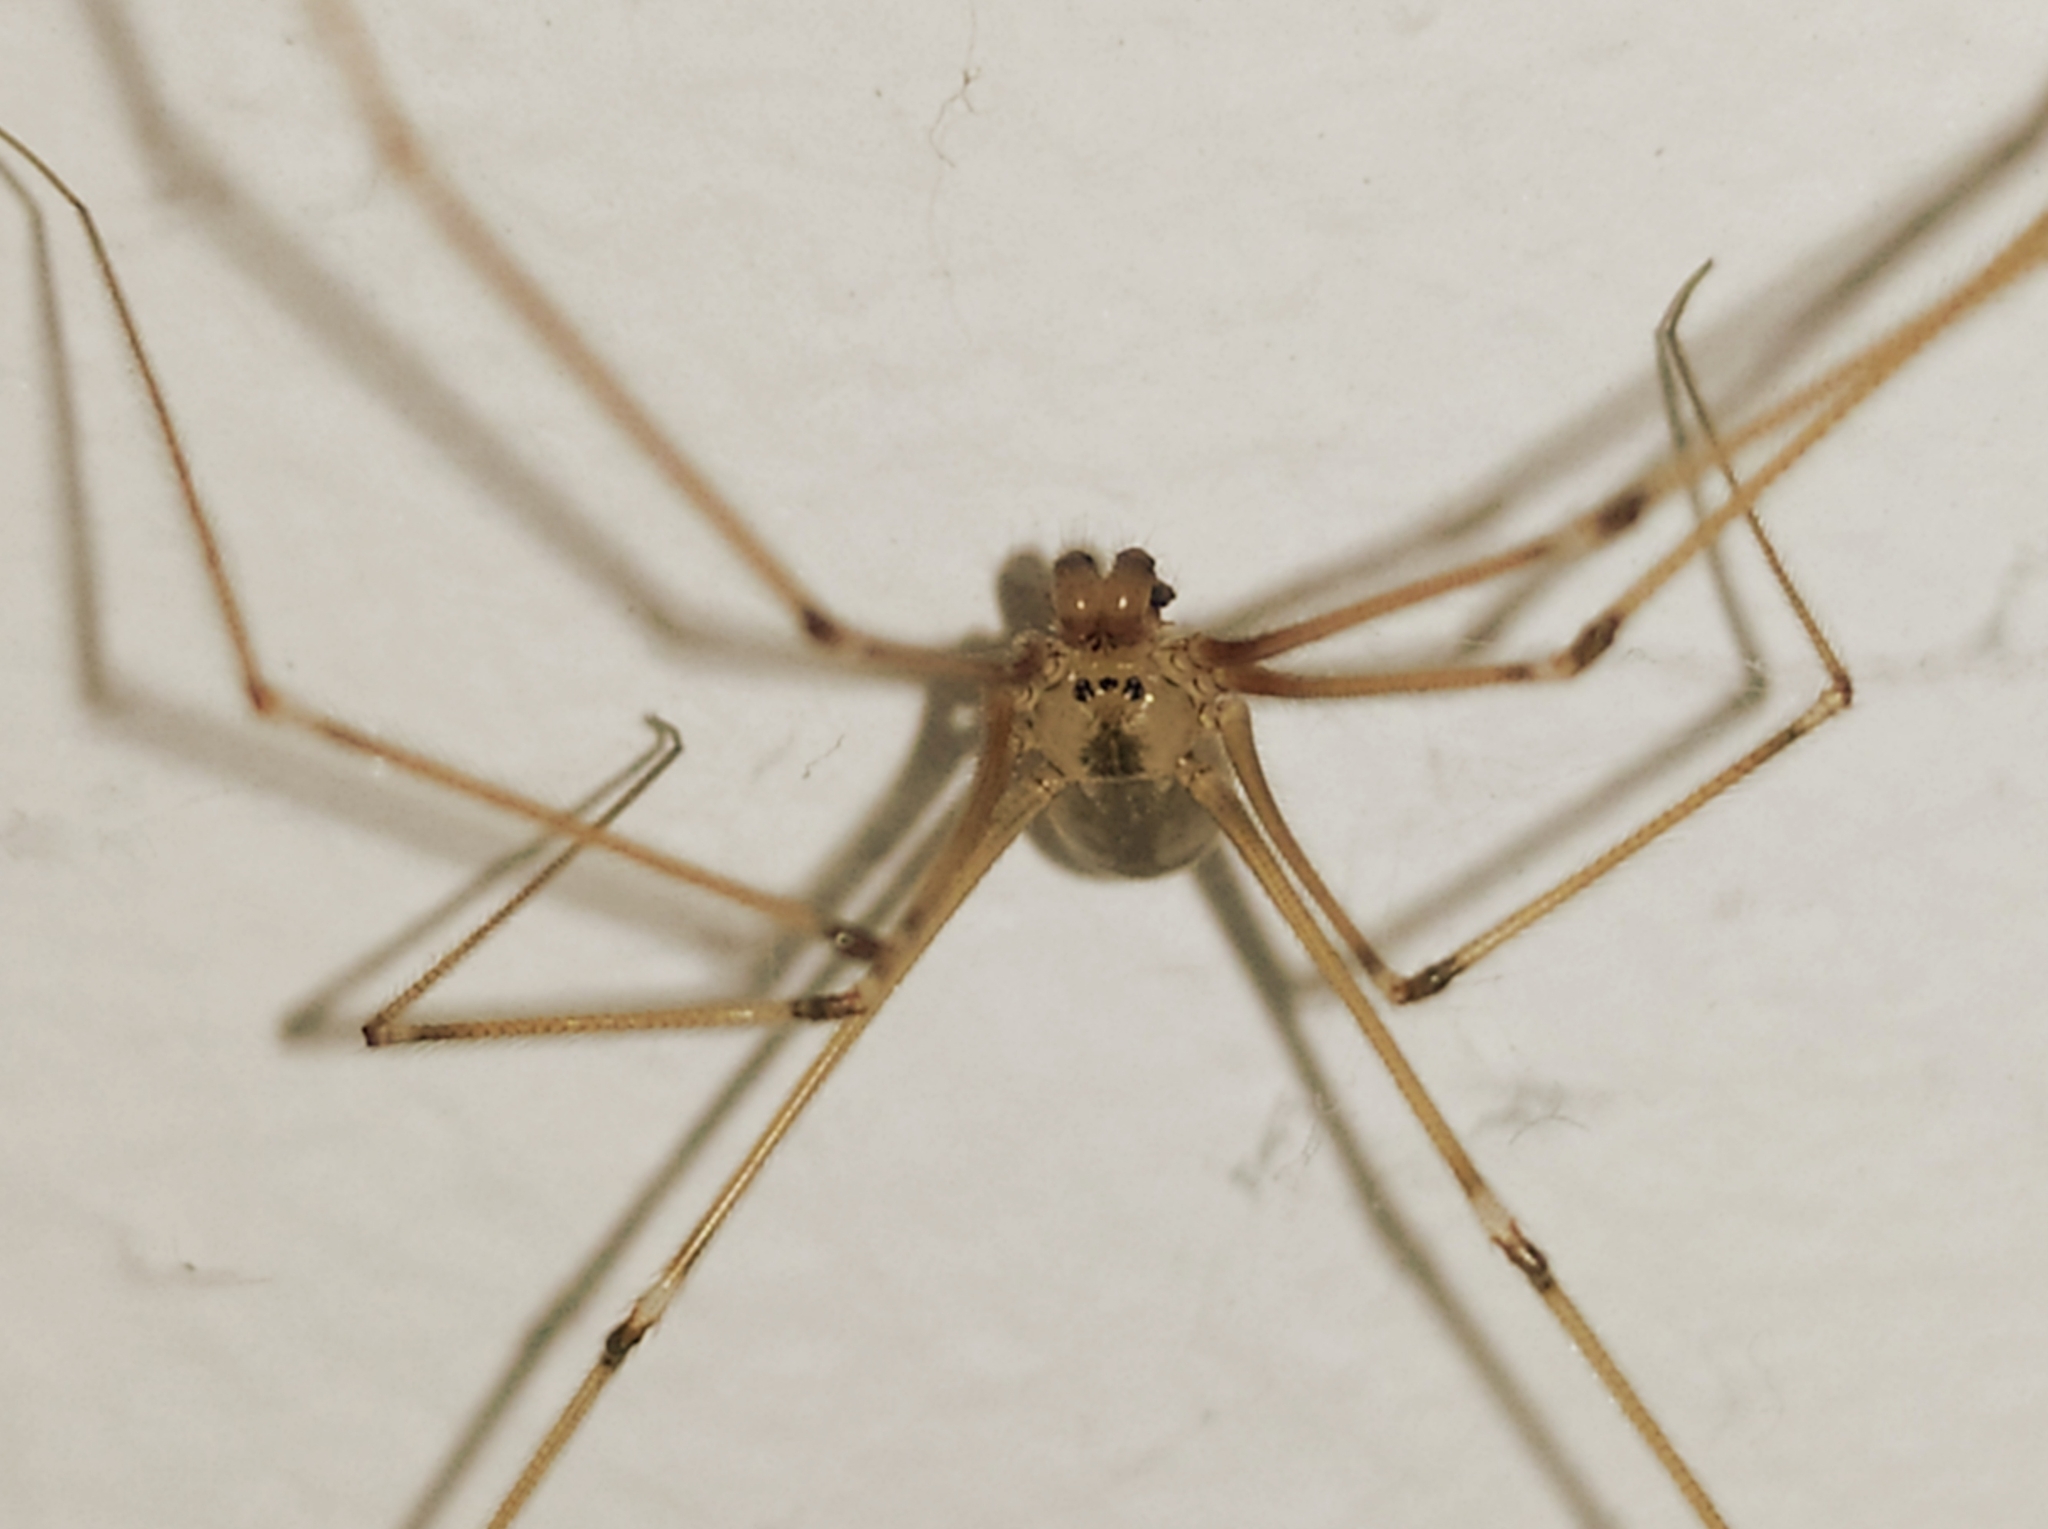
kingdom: Animalia
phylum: Arthropoda
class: Arachnida
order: Araneae
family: Pholcidae
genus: Pholcus
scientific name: Pholcus phalangioides
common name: Longbodied cellar spider
